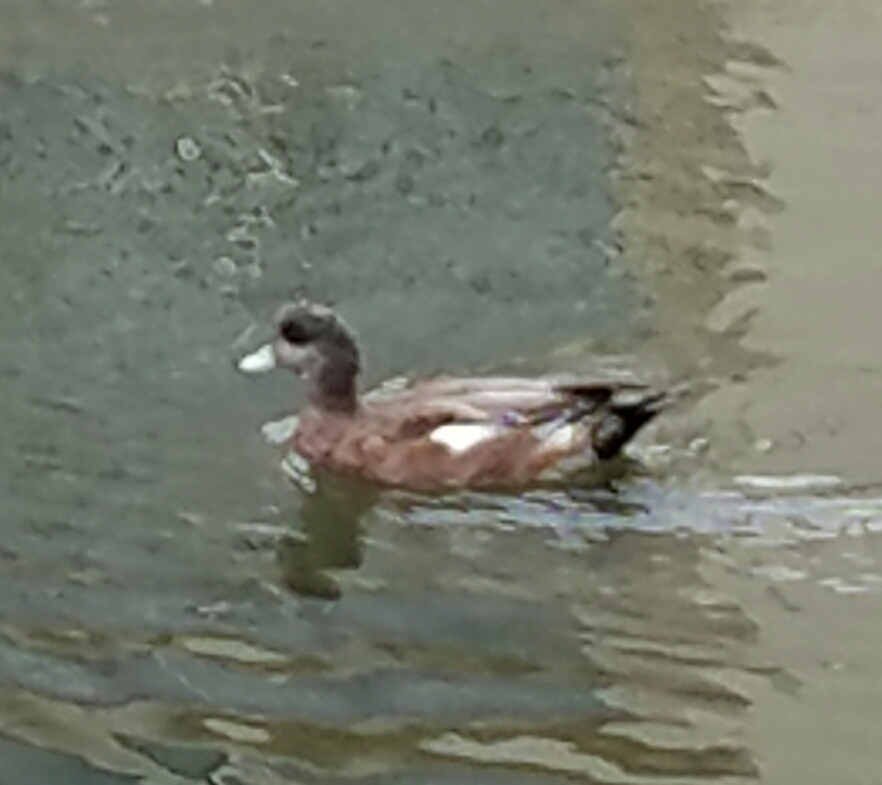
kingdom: Animalia
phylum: Chordata
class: Aves
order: Anseriformes
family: Anatidae
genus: Mareca
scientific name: Mareca americana
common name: American wigeon
